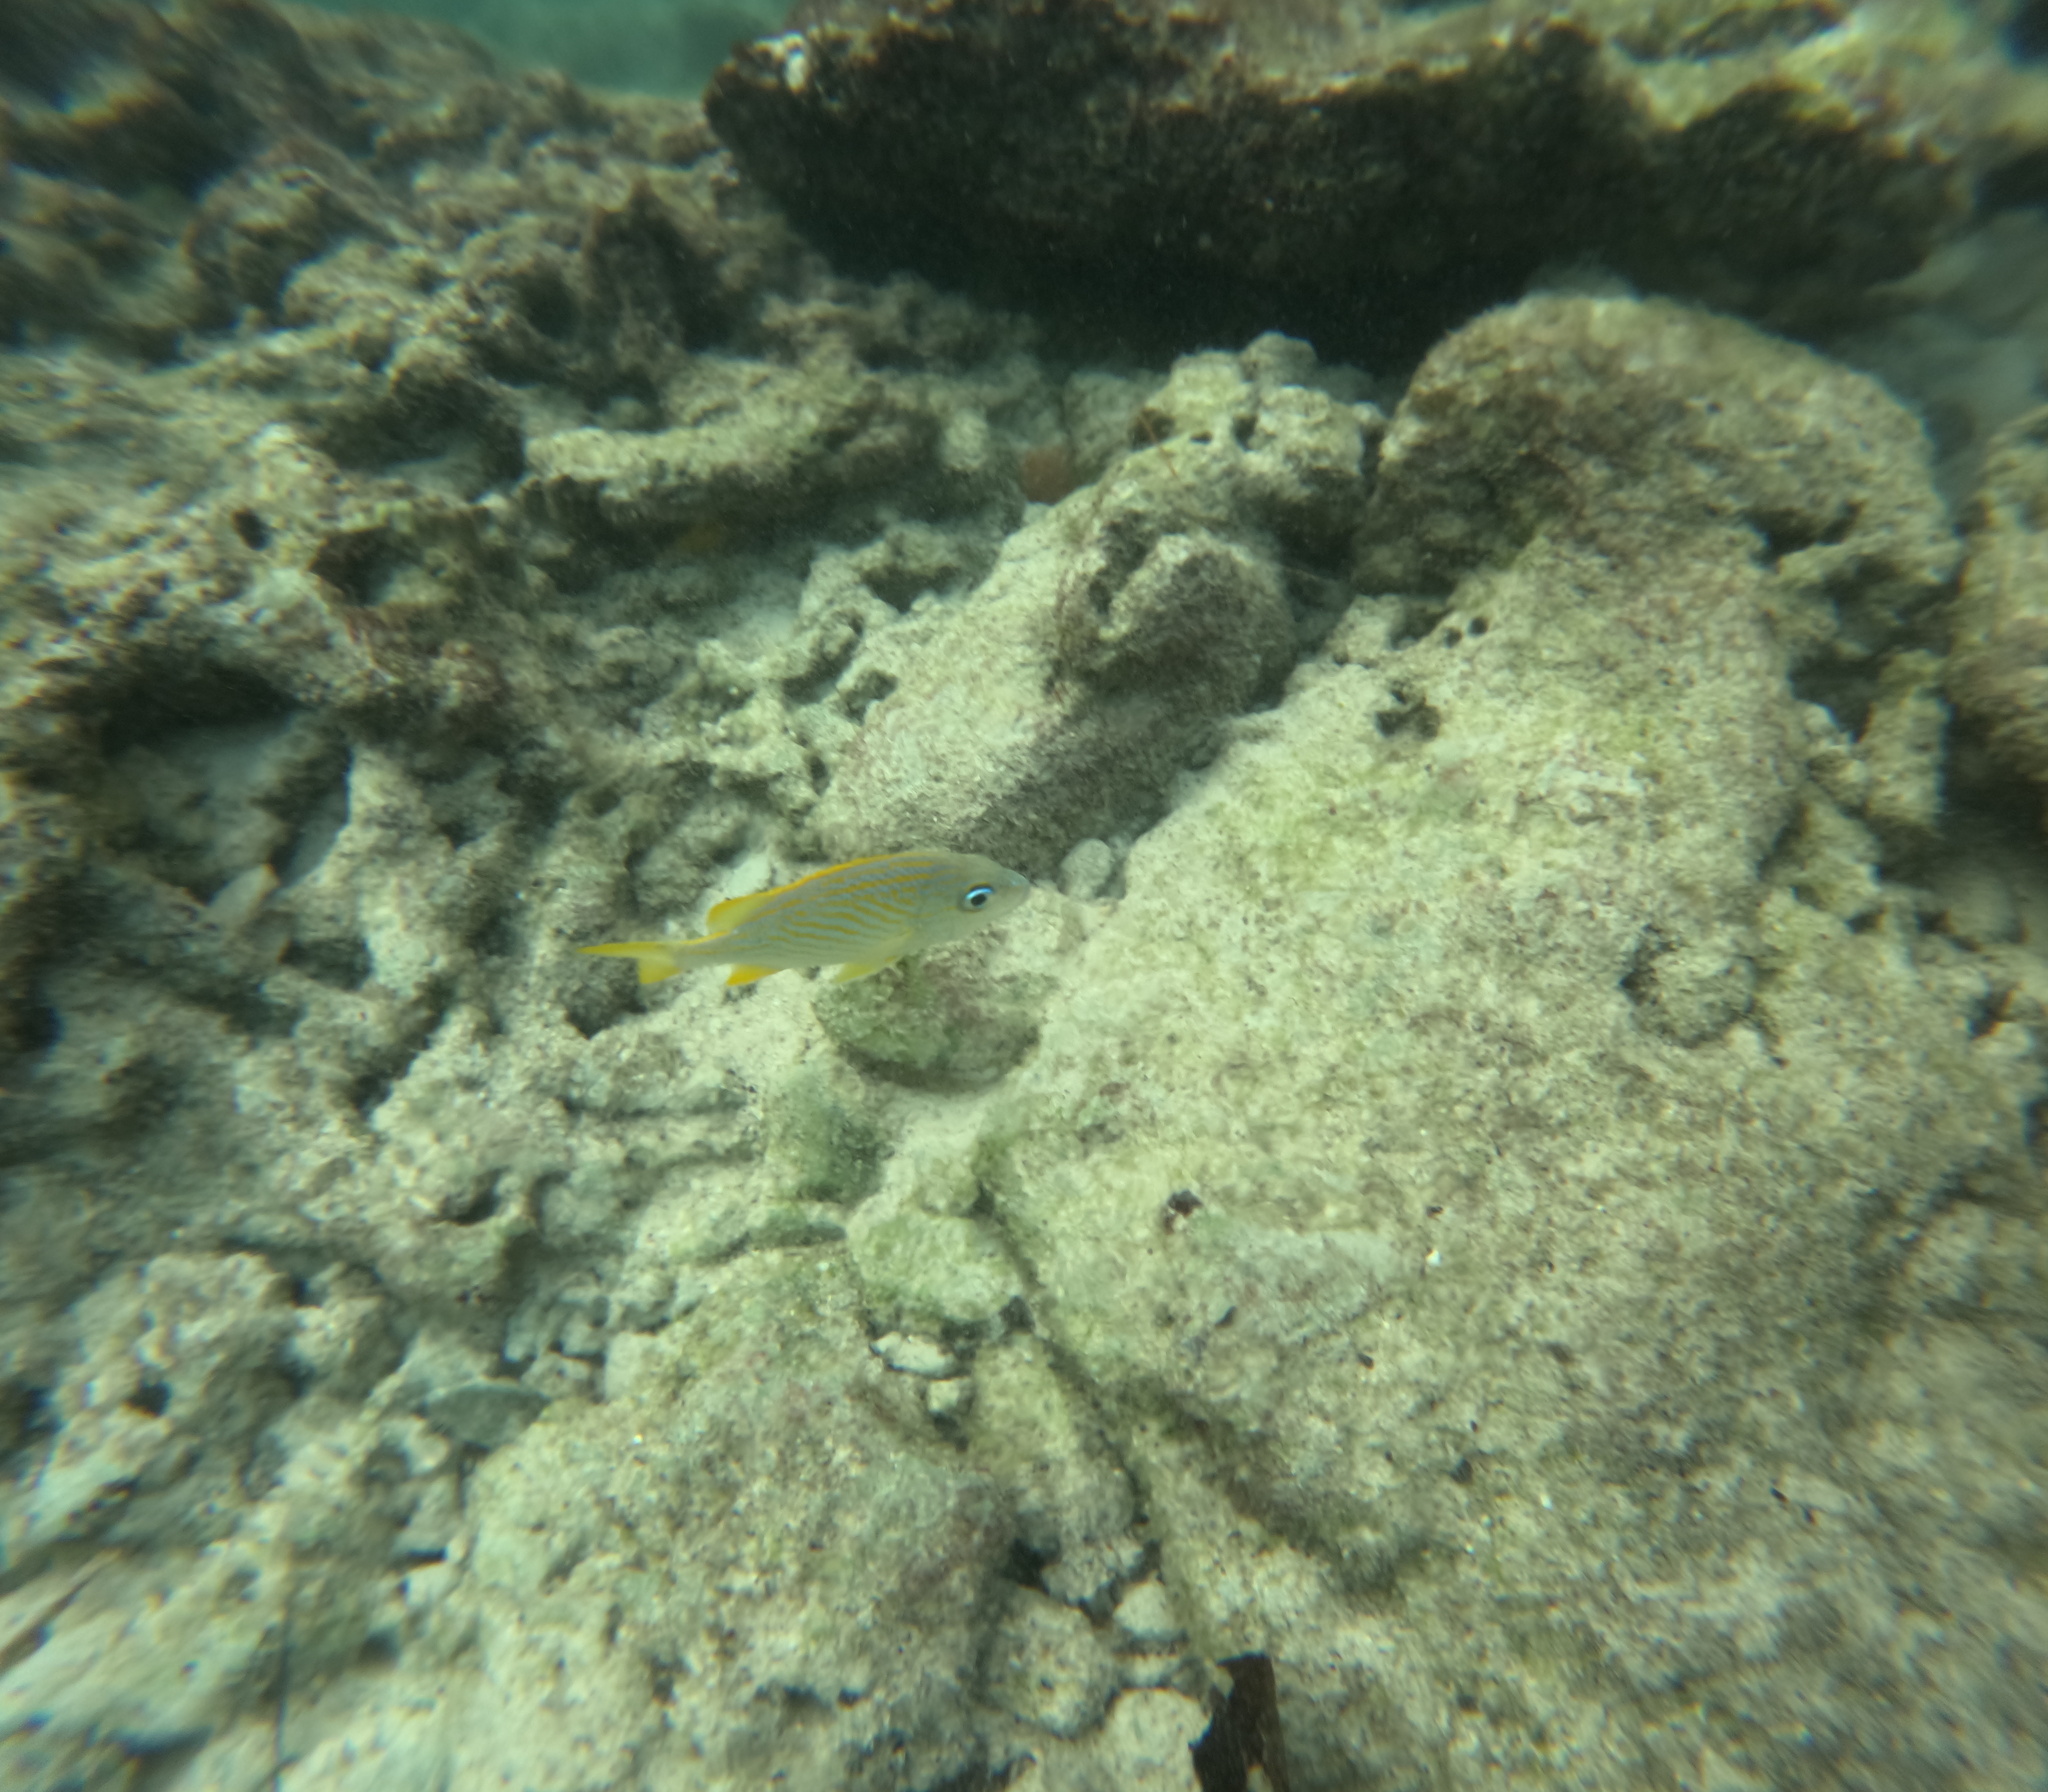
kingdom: Animalia
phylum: Chordata
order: Perciformes
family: Haemulidae
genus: Haemulon
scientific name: Haemulon flavolineatum
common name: French grunt
